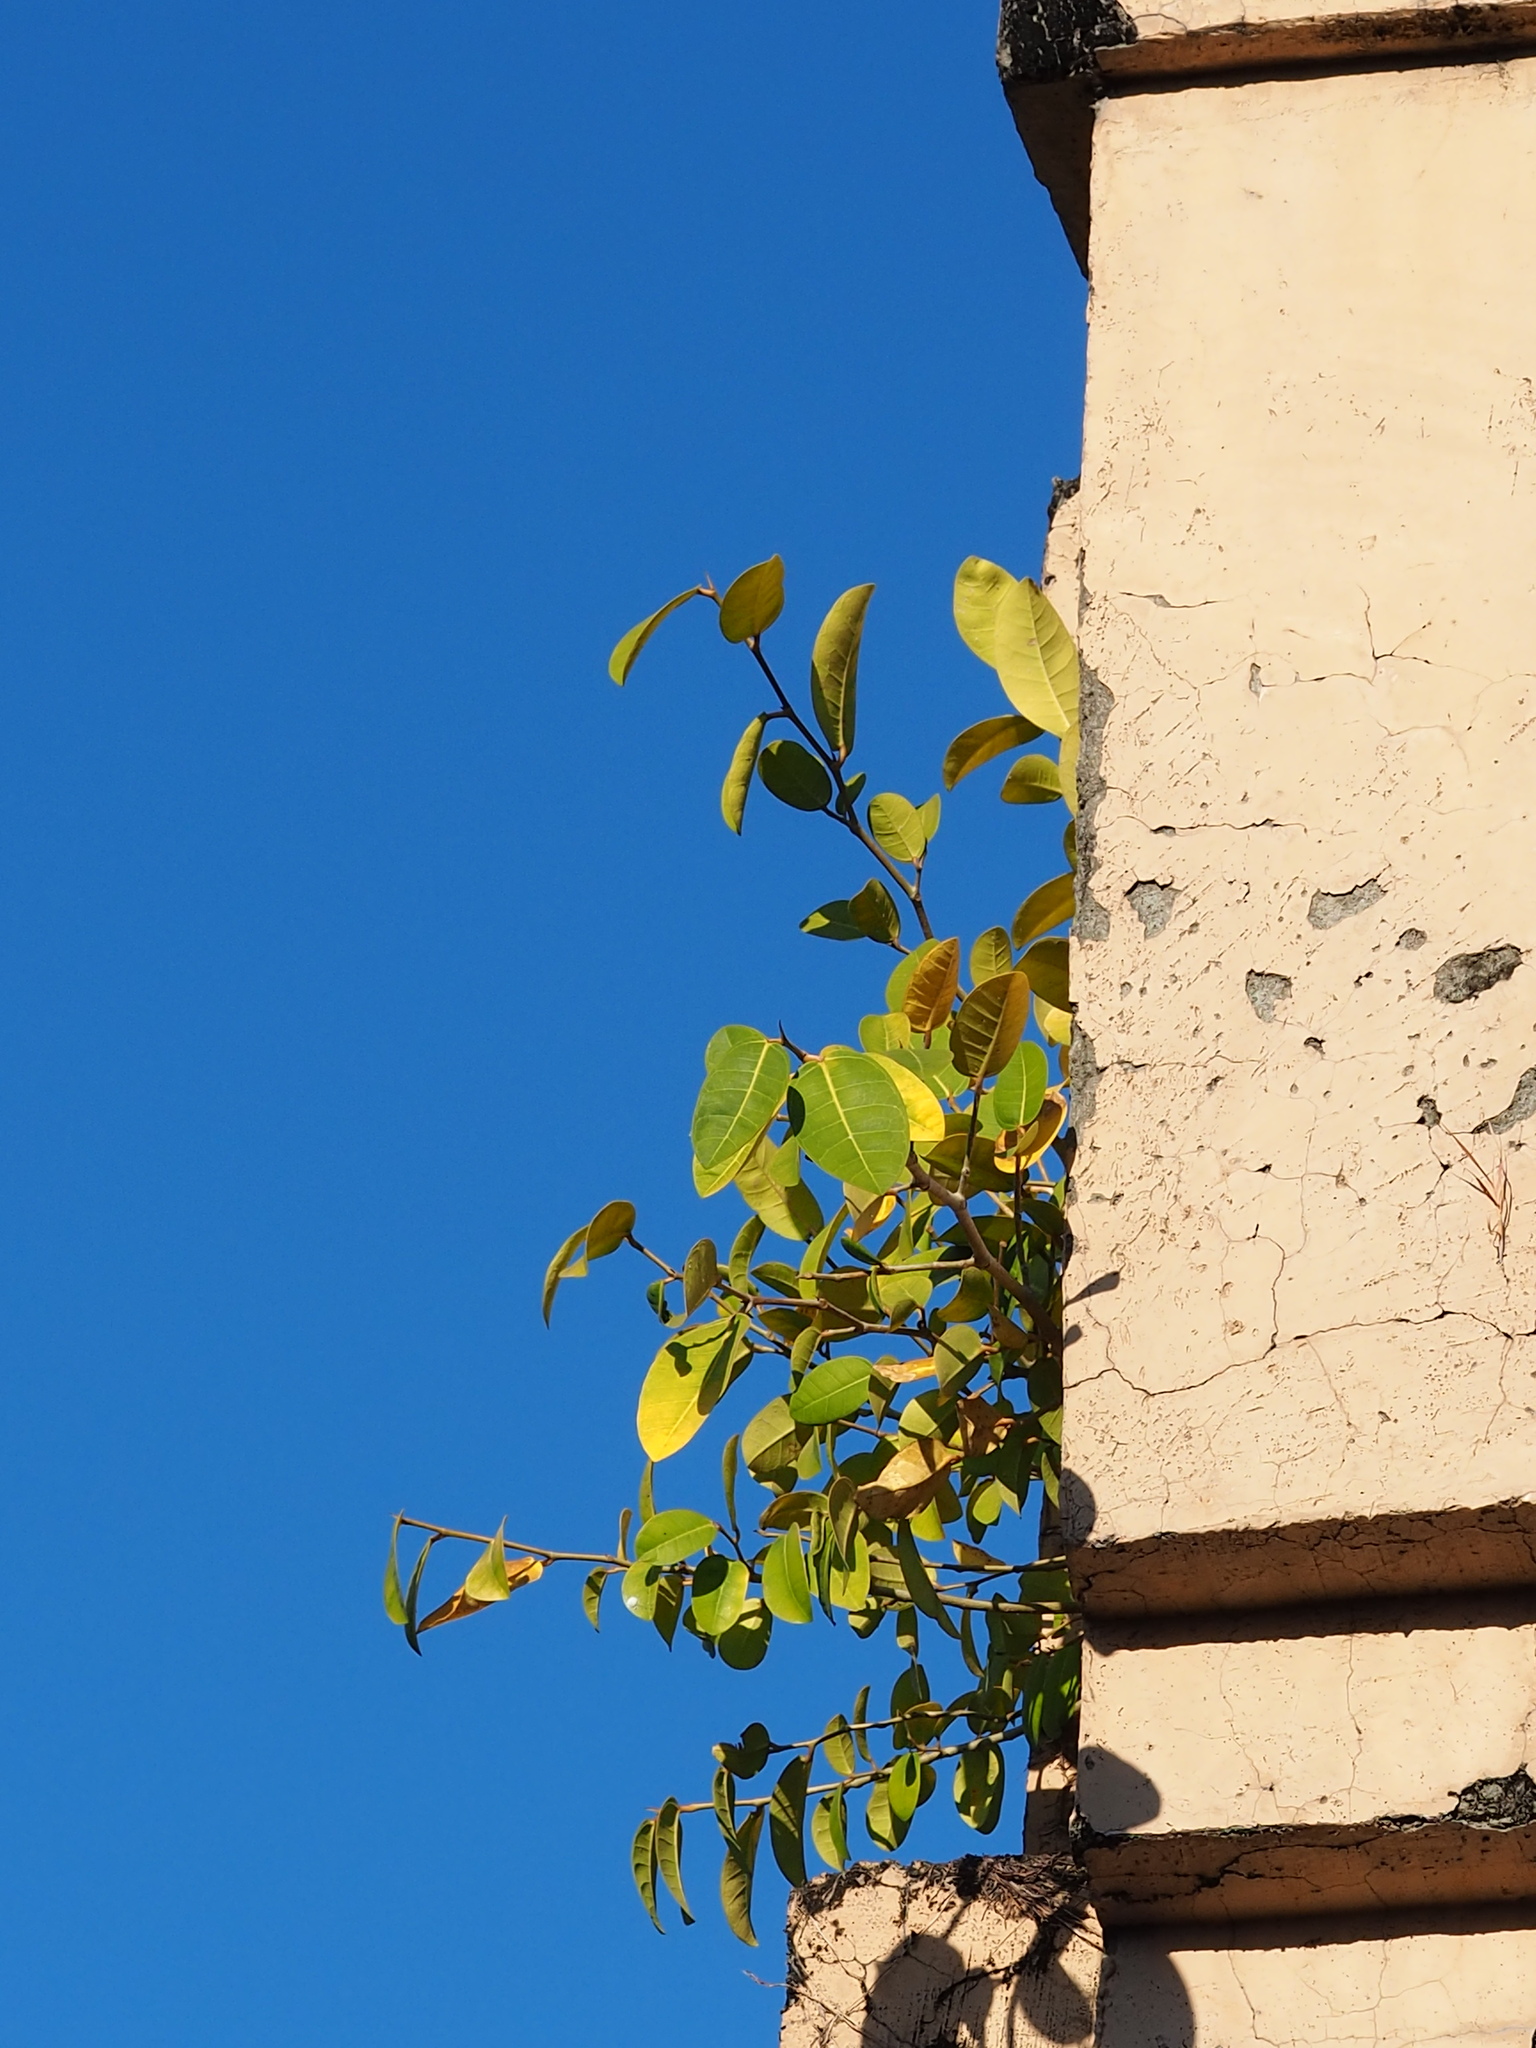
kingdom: Plantae
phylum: Tracheophyta
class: Magnoliopsida
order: Rosales
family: Moraceae
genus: Ficus
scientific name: Ficus tinctoria
